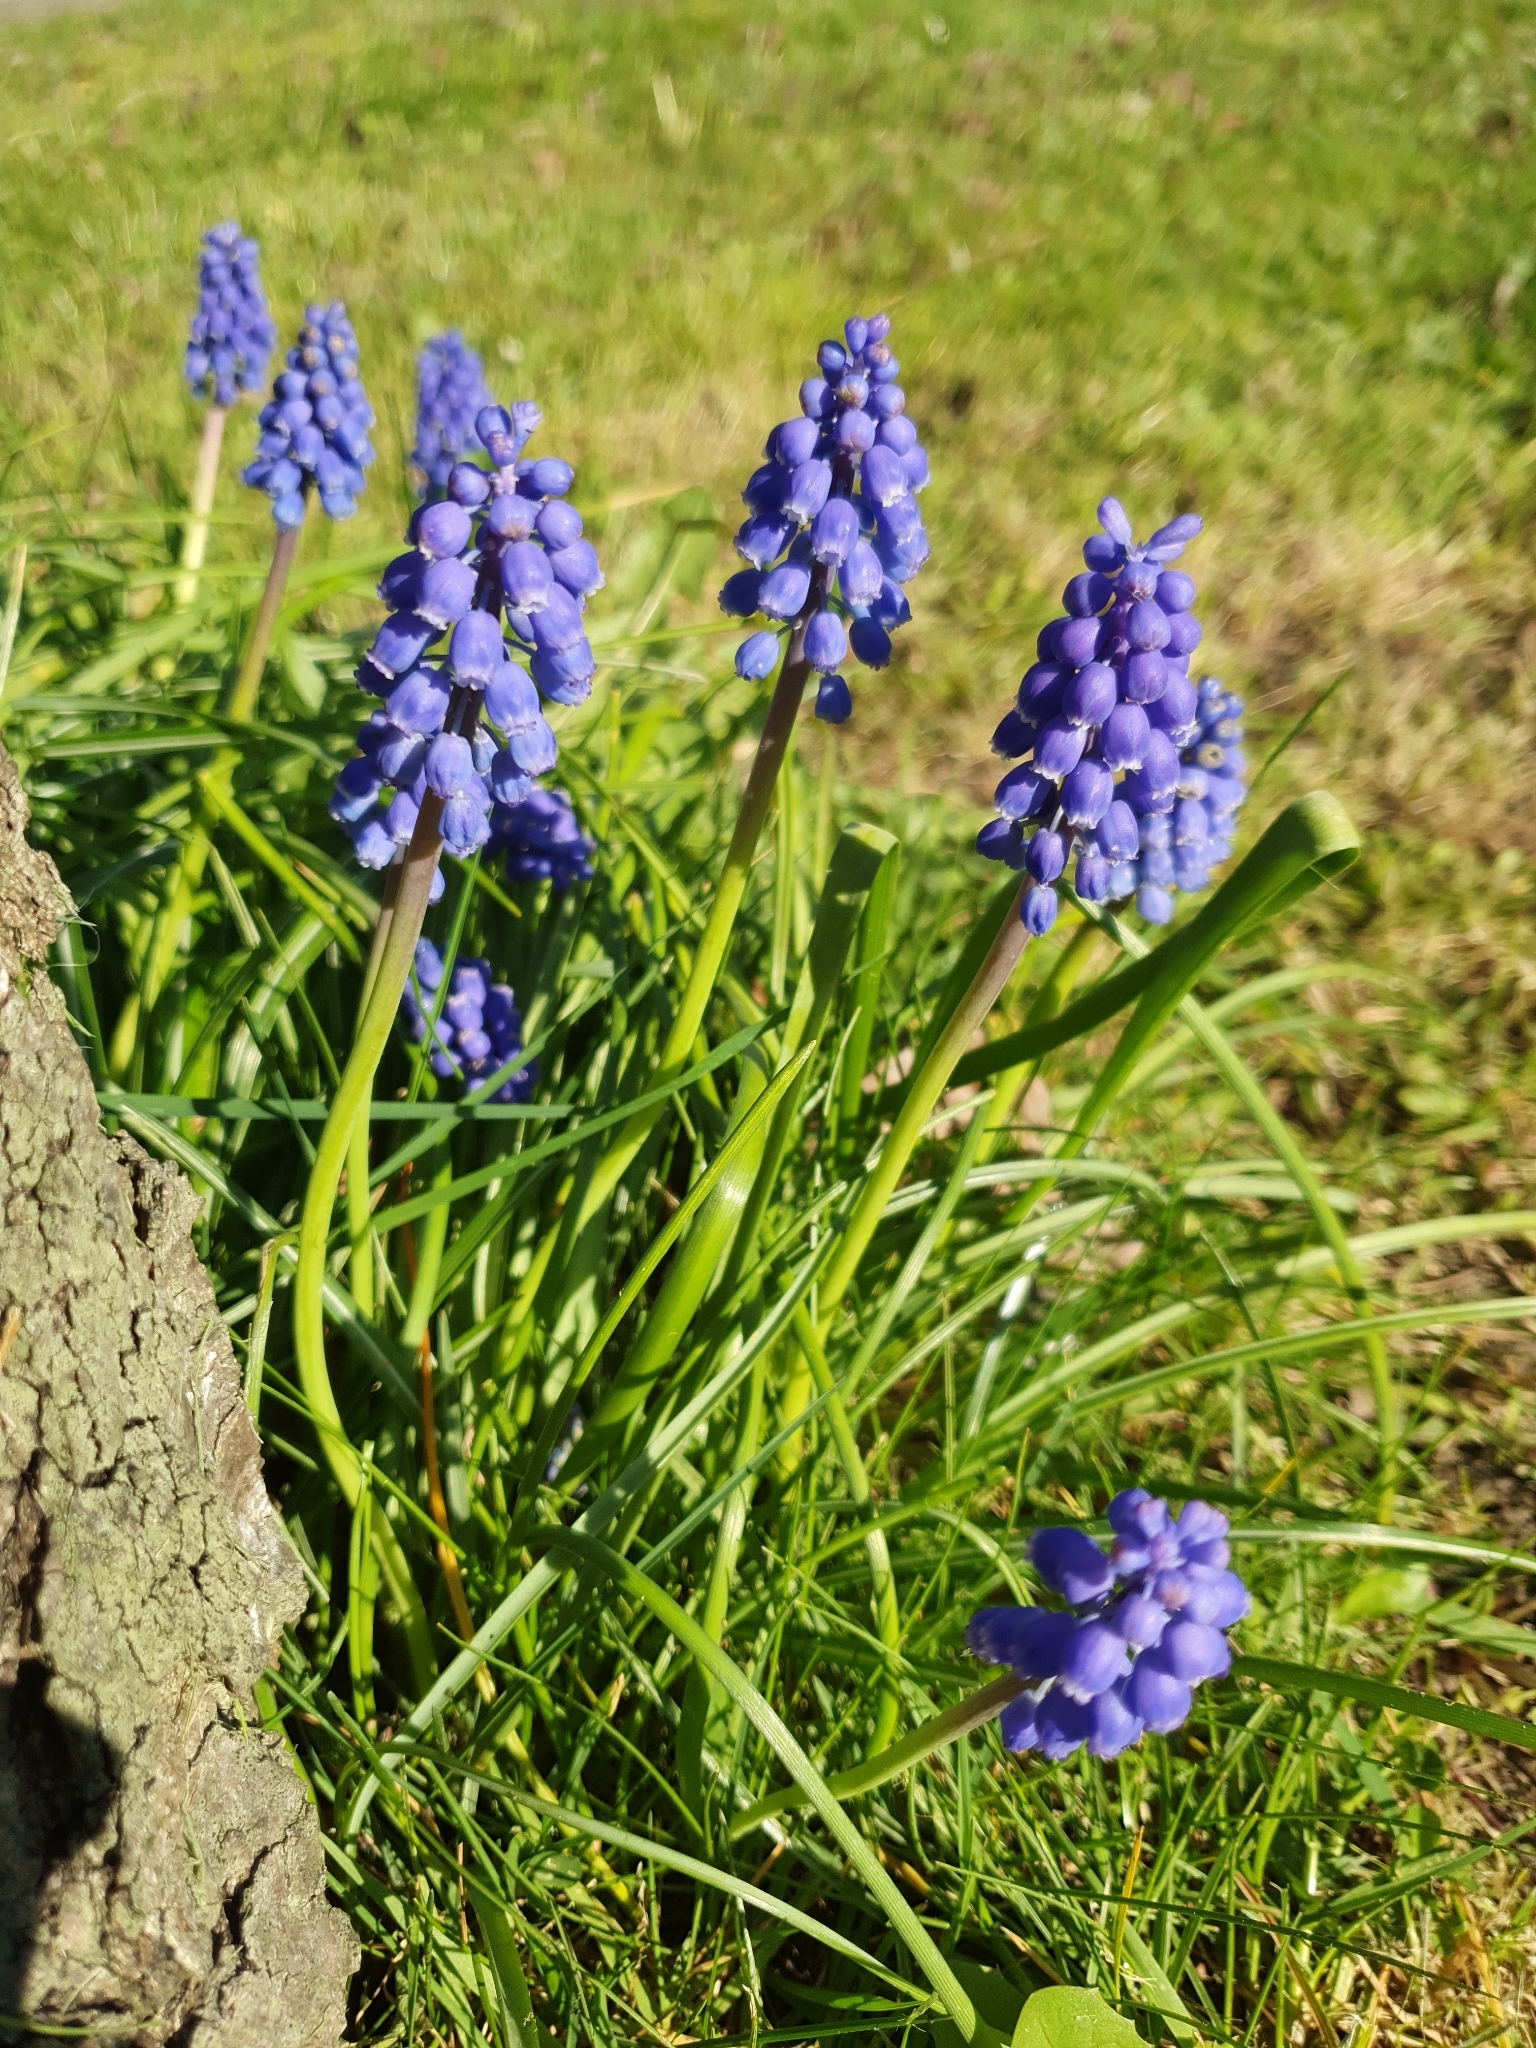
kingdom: Plantae
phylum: Tracheophyta
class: Liliopsida
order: Asparagales
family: Asparagaceae
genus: Muscari
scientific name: Muscari armeniacum
